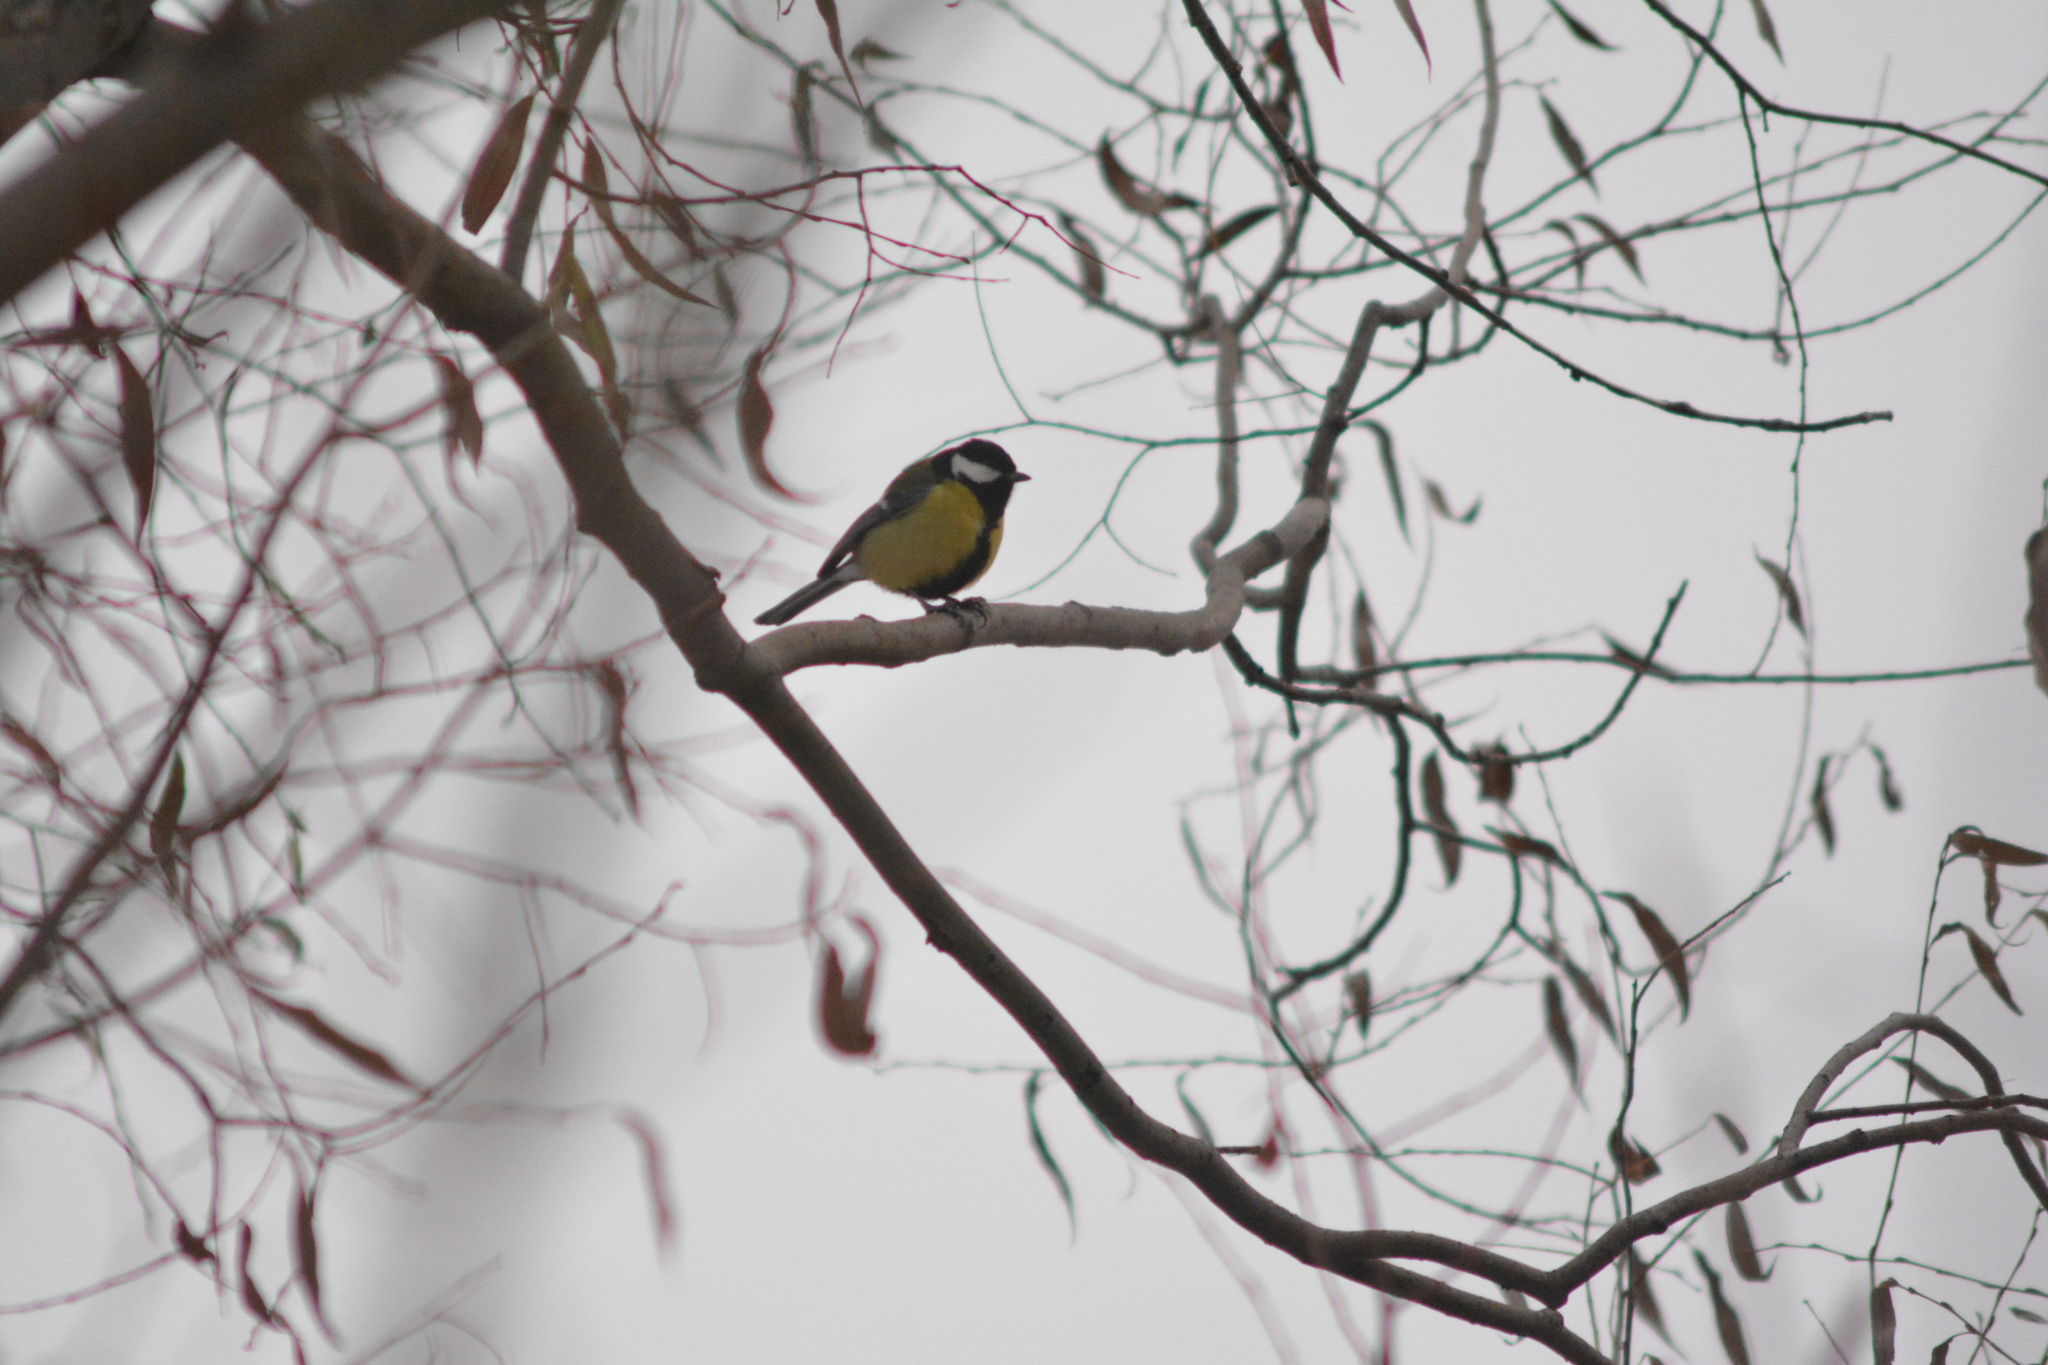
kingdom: Animalia
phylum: Chordata
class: Aves
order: Passeriformes
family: Paridae
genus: Parus
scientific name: Parus major
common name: Great tit
